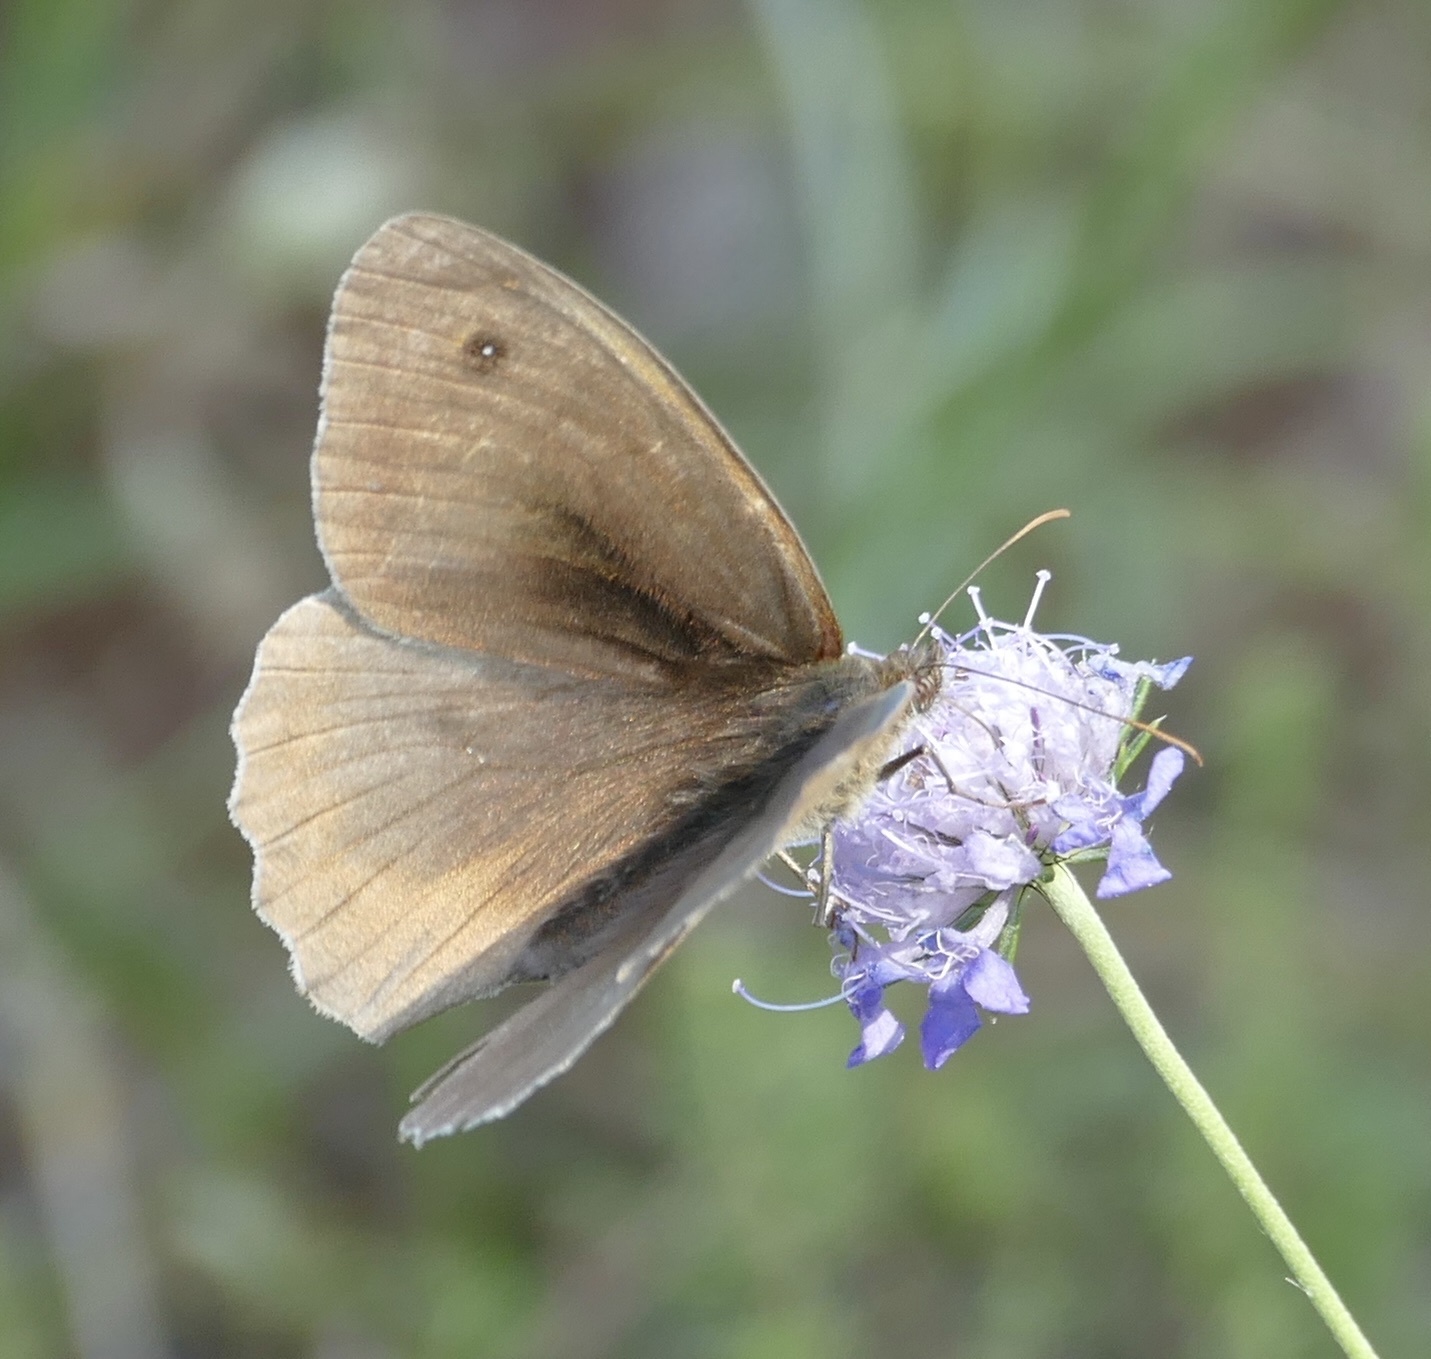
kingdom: Animalia
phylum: Arthropoda
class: Insecta
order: Lepidoptera
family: Nymphalidae
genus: Maniola
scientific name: Maniola jurtina
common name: Meadow brown
